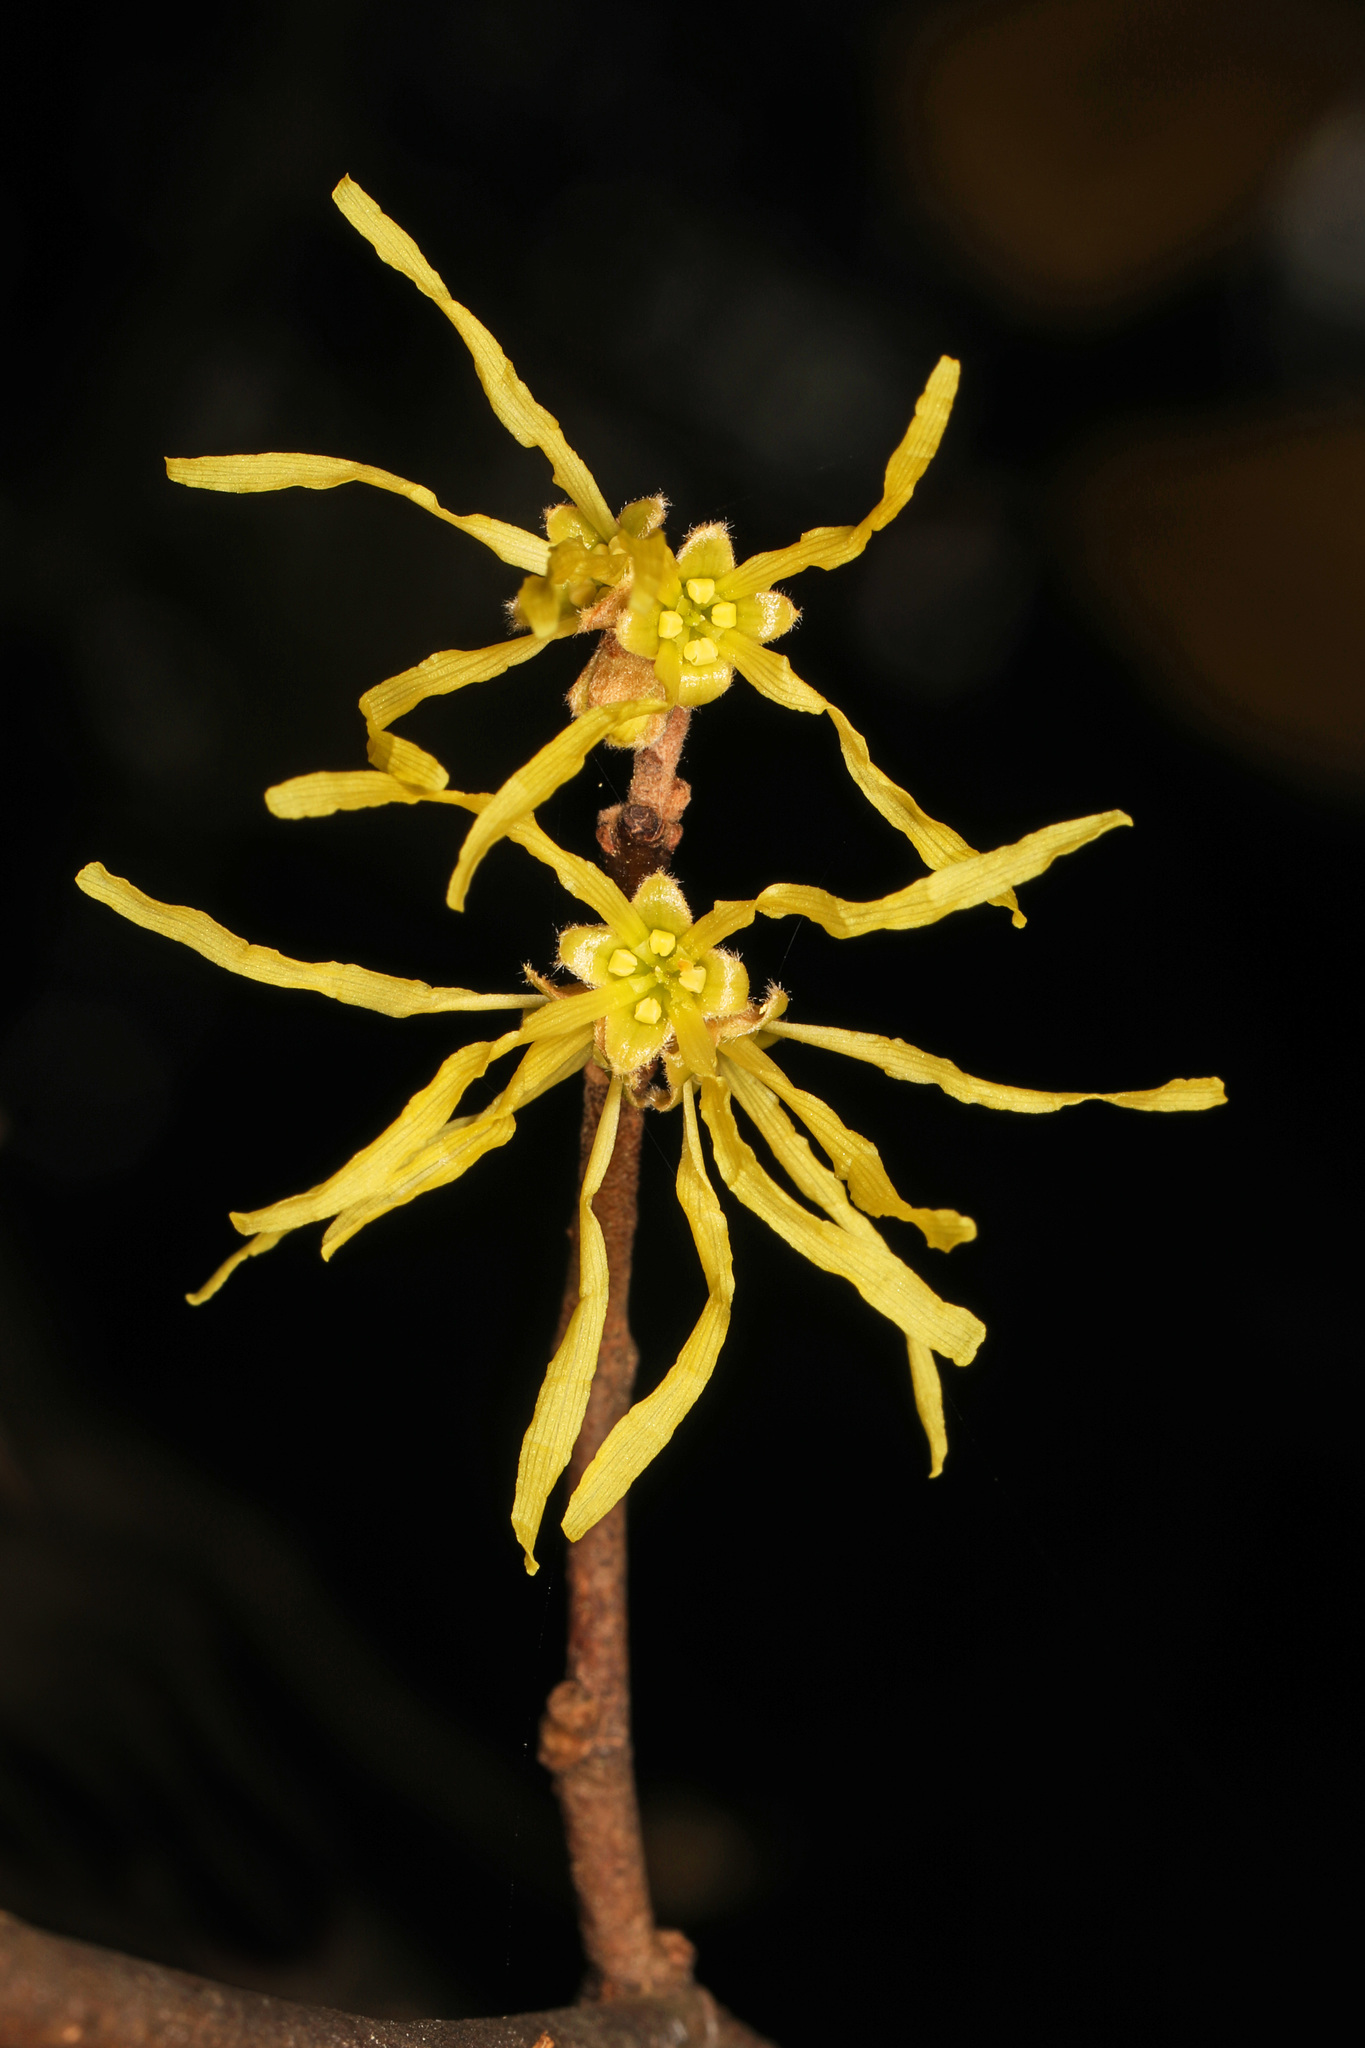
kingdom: Plantae
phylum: Tracheophyta
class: Magnoliopsida
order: Saxifragales
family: Hamamelidaceae
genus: Hamamelis
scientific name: Hamamelis virginiana
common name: Witch-hazel
